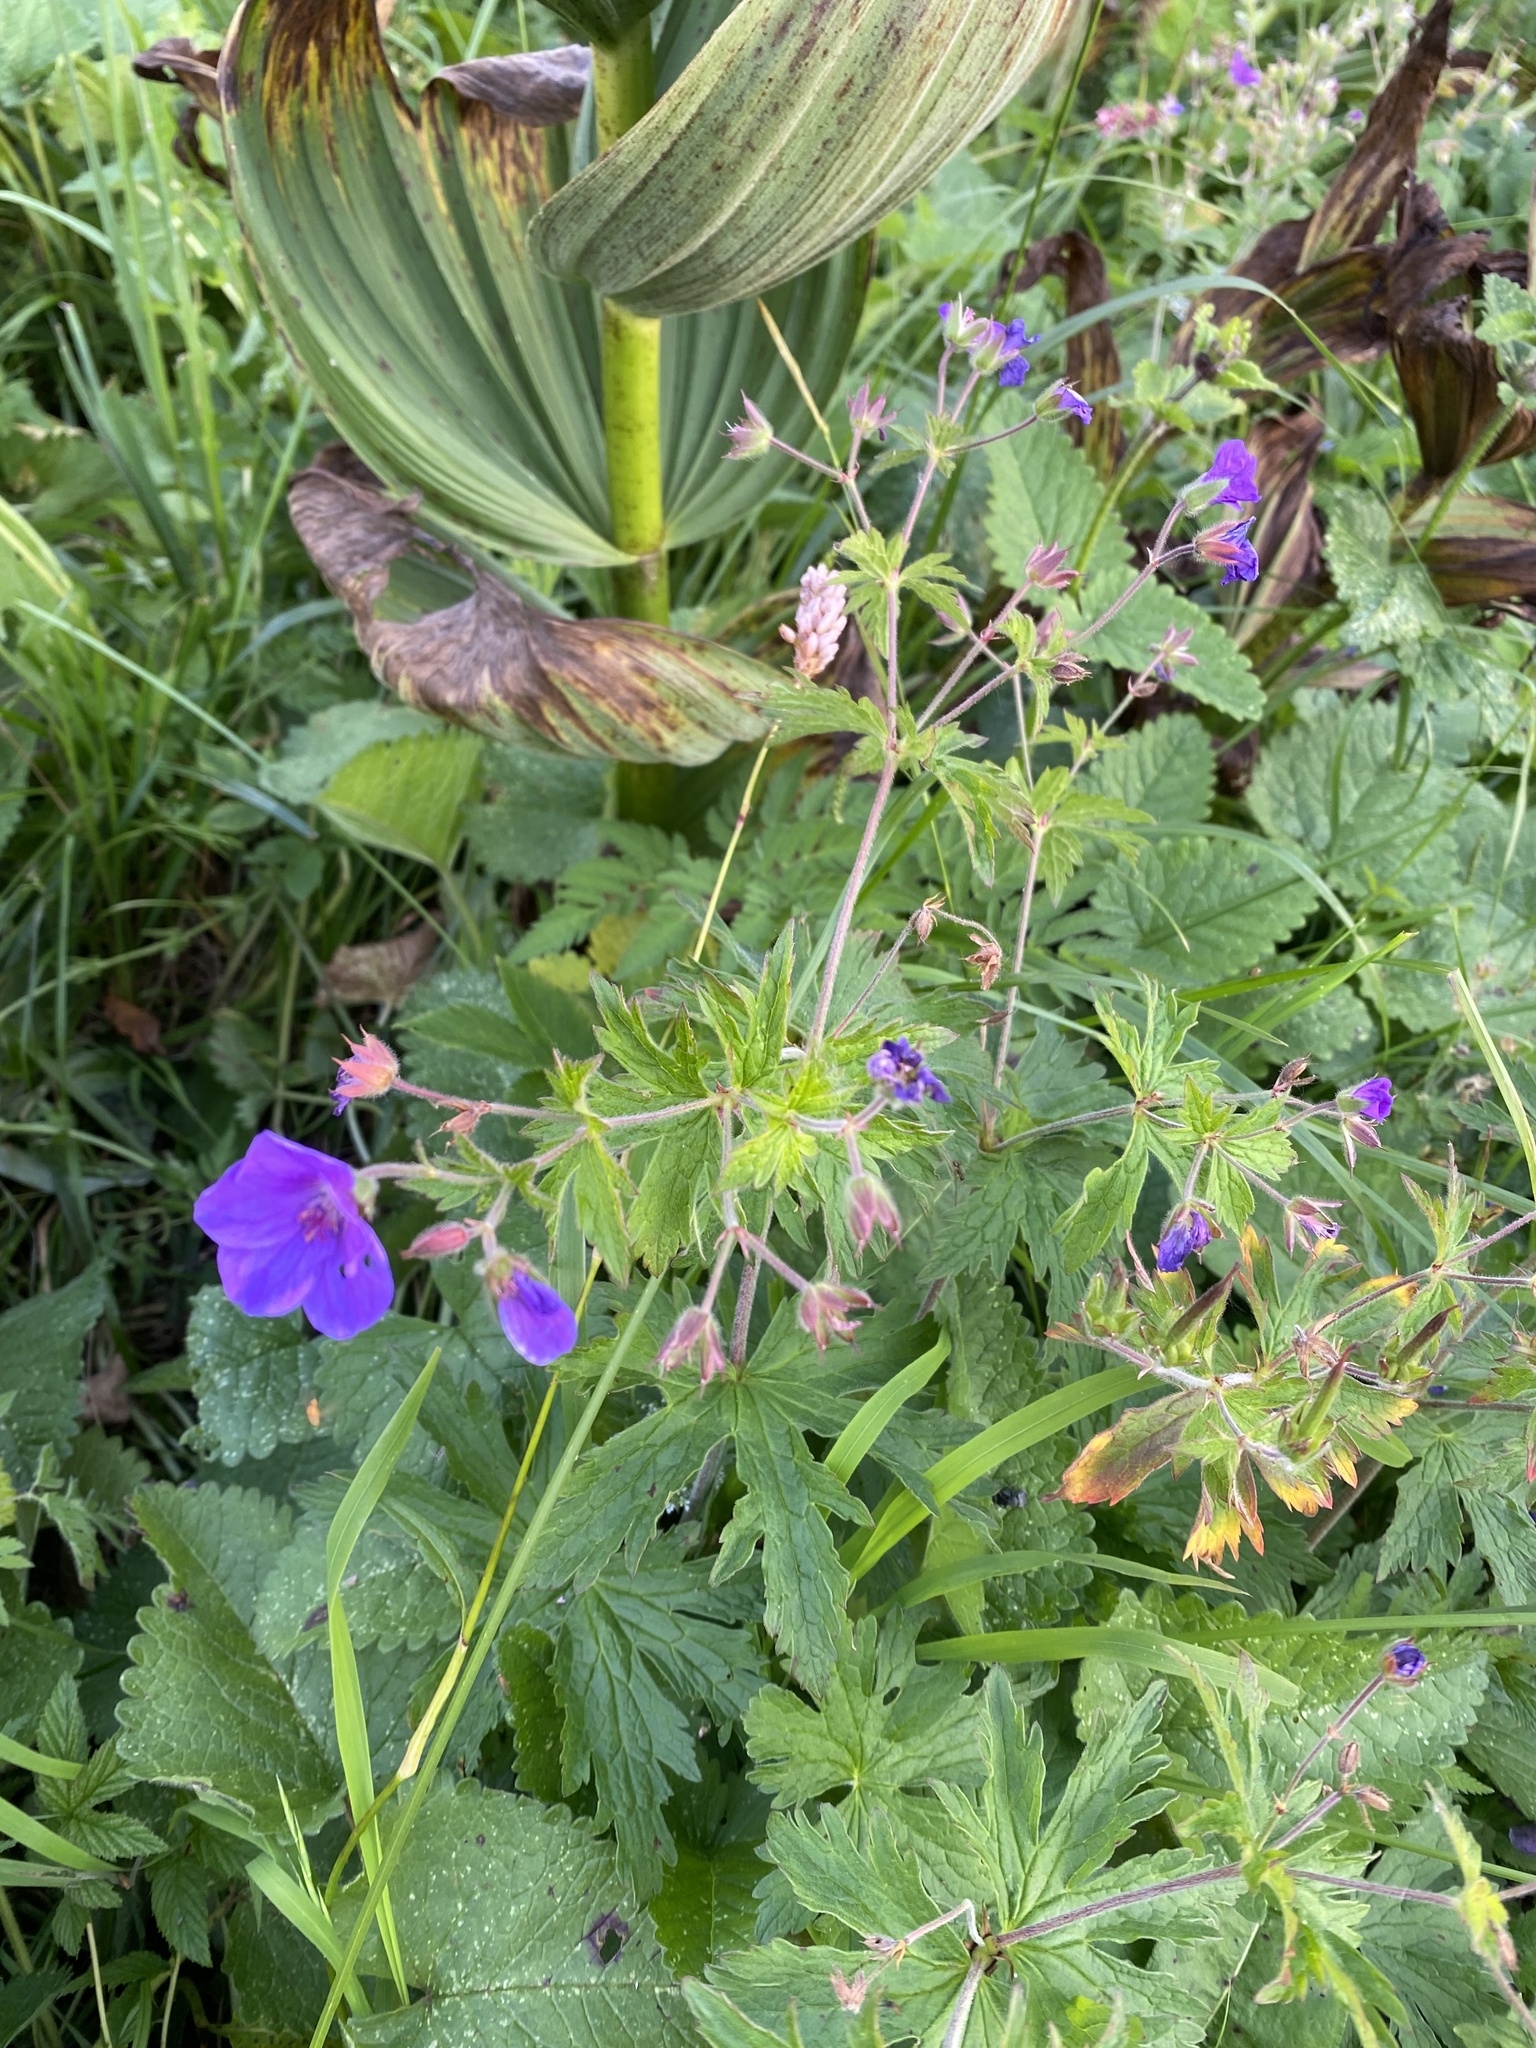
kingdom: Plantae
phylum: Tracheophyta
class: Magnoliopsida
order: Geraniales
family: Geraniaceae
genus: Geranium
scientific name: Geranium sylvaticum
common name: Wood crane's-bill
